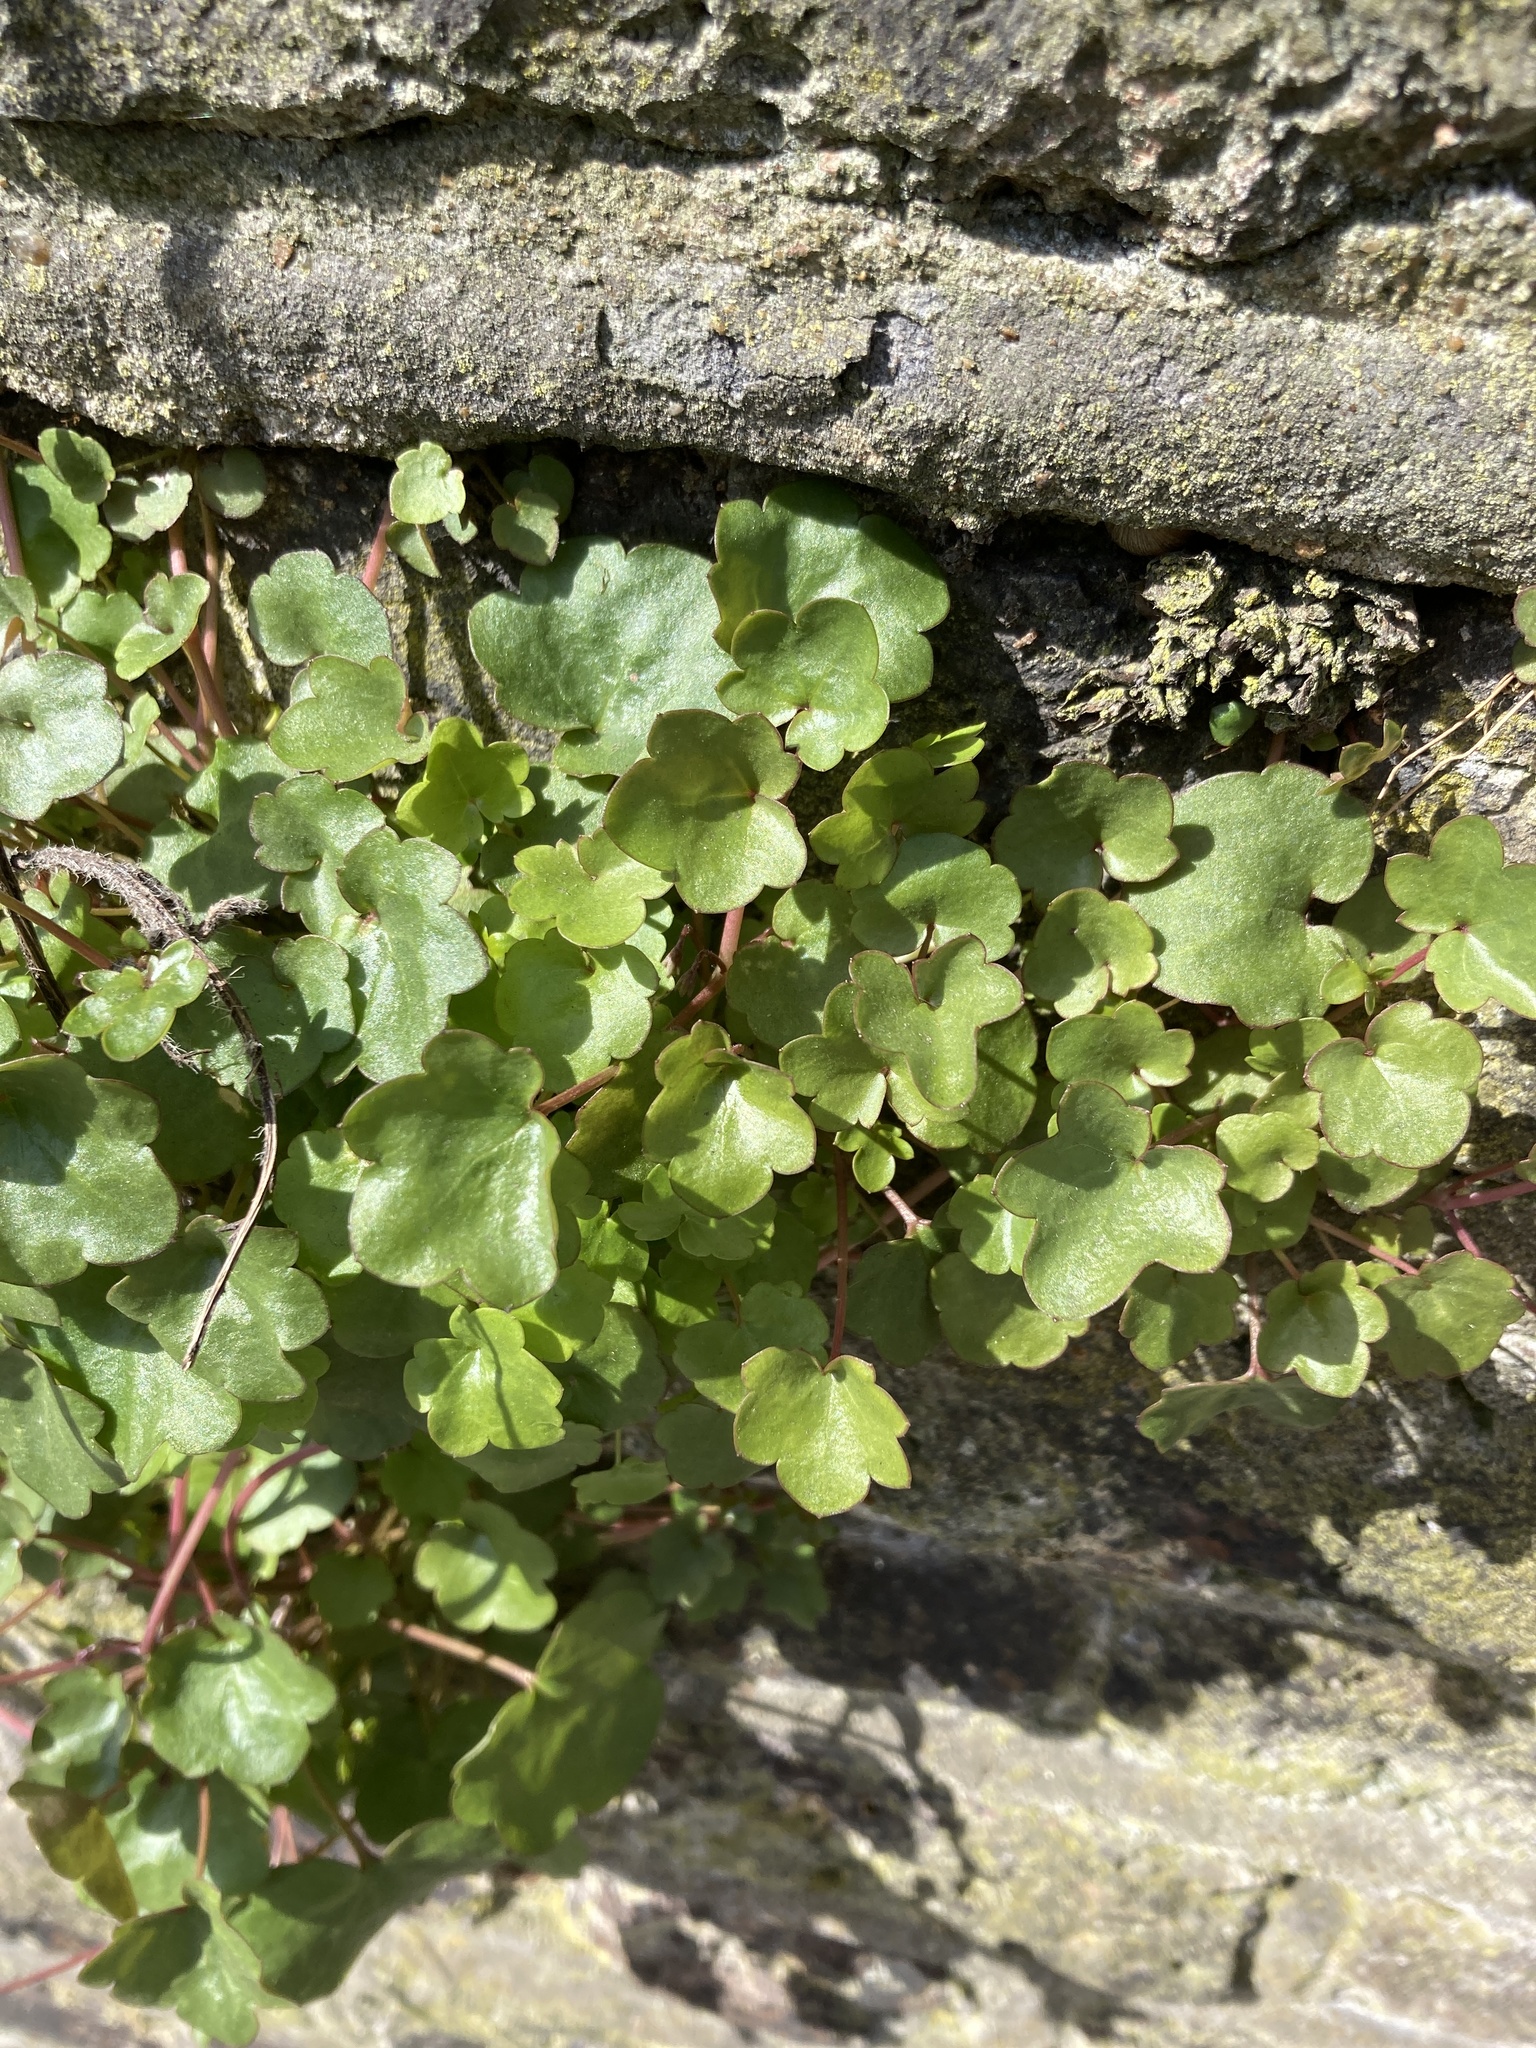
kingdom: Plantae
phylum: Tracheophyta
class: Magnoliopsida
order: Lamiales
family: Plantaginaceae
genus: Cymbalaria
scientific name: Cymbalaria muralis
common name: Ivy-leaved toadflax
